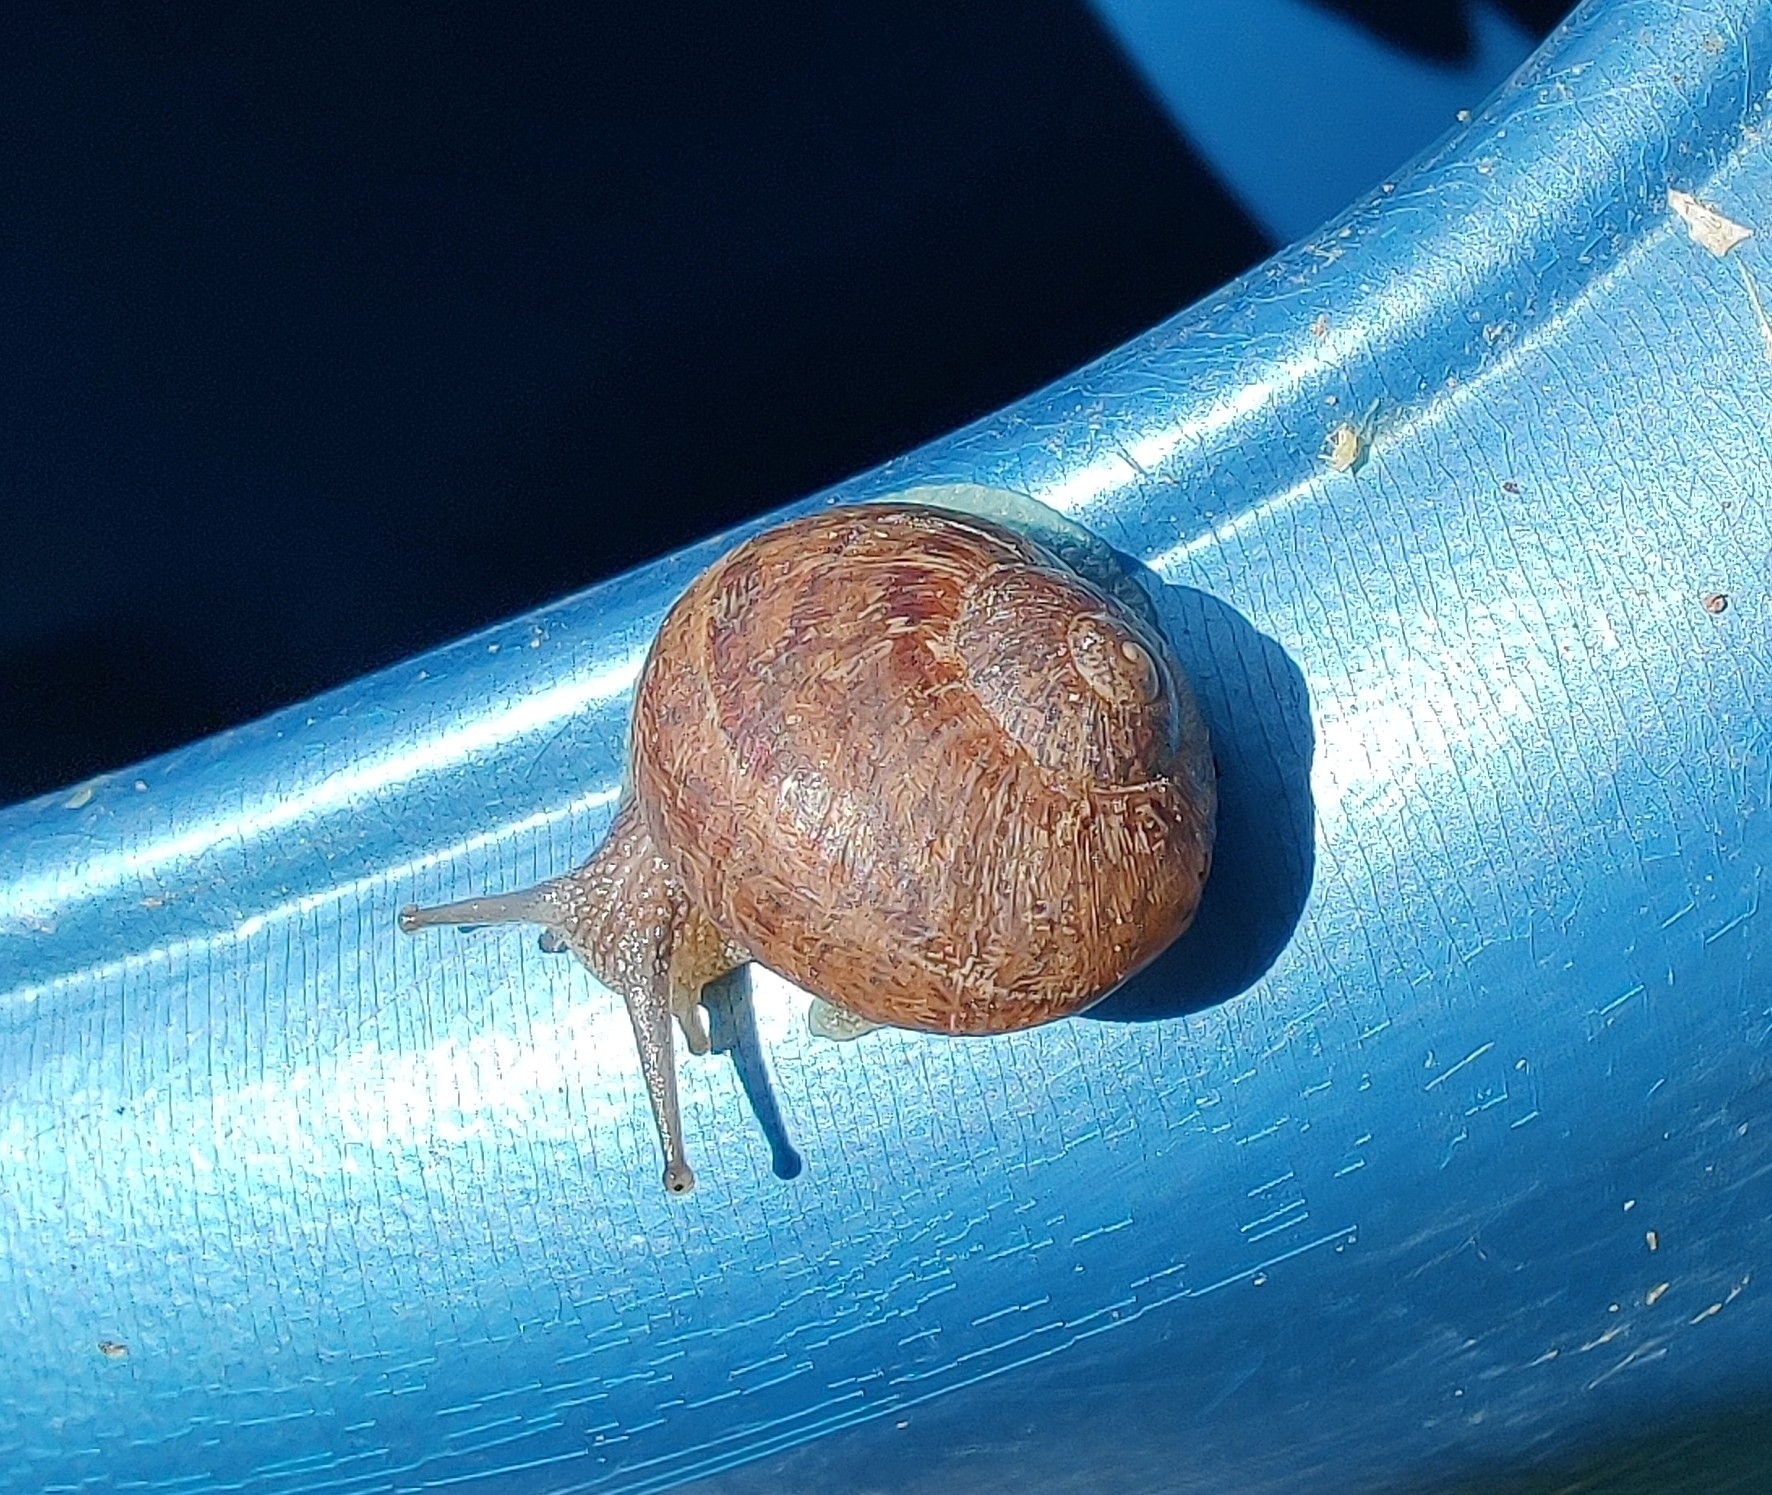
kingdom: Animalia
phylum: Mollusca
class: Gastropoda
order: Stylommatophora
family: Helicidae
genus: Cornu
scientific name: Cornu aspersum
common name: Brown garden snail
